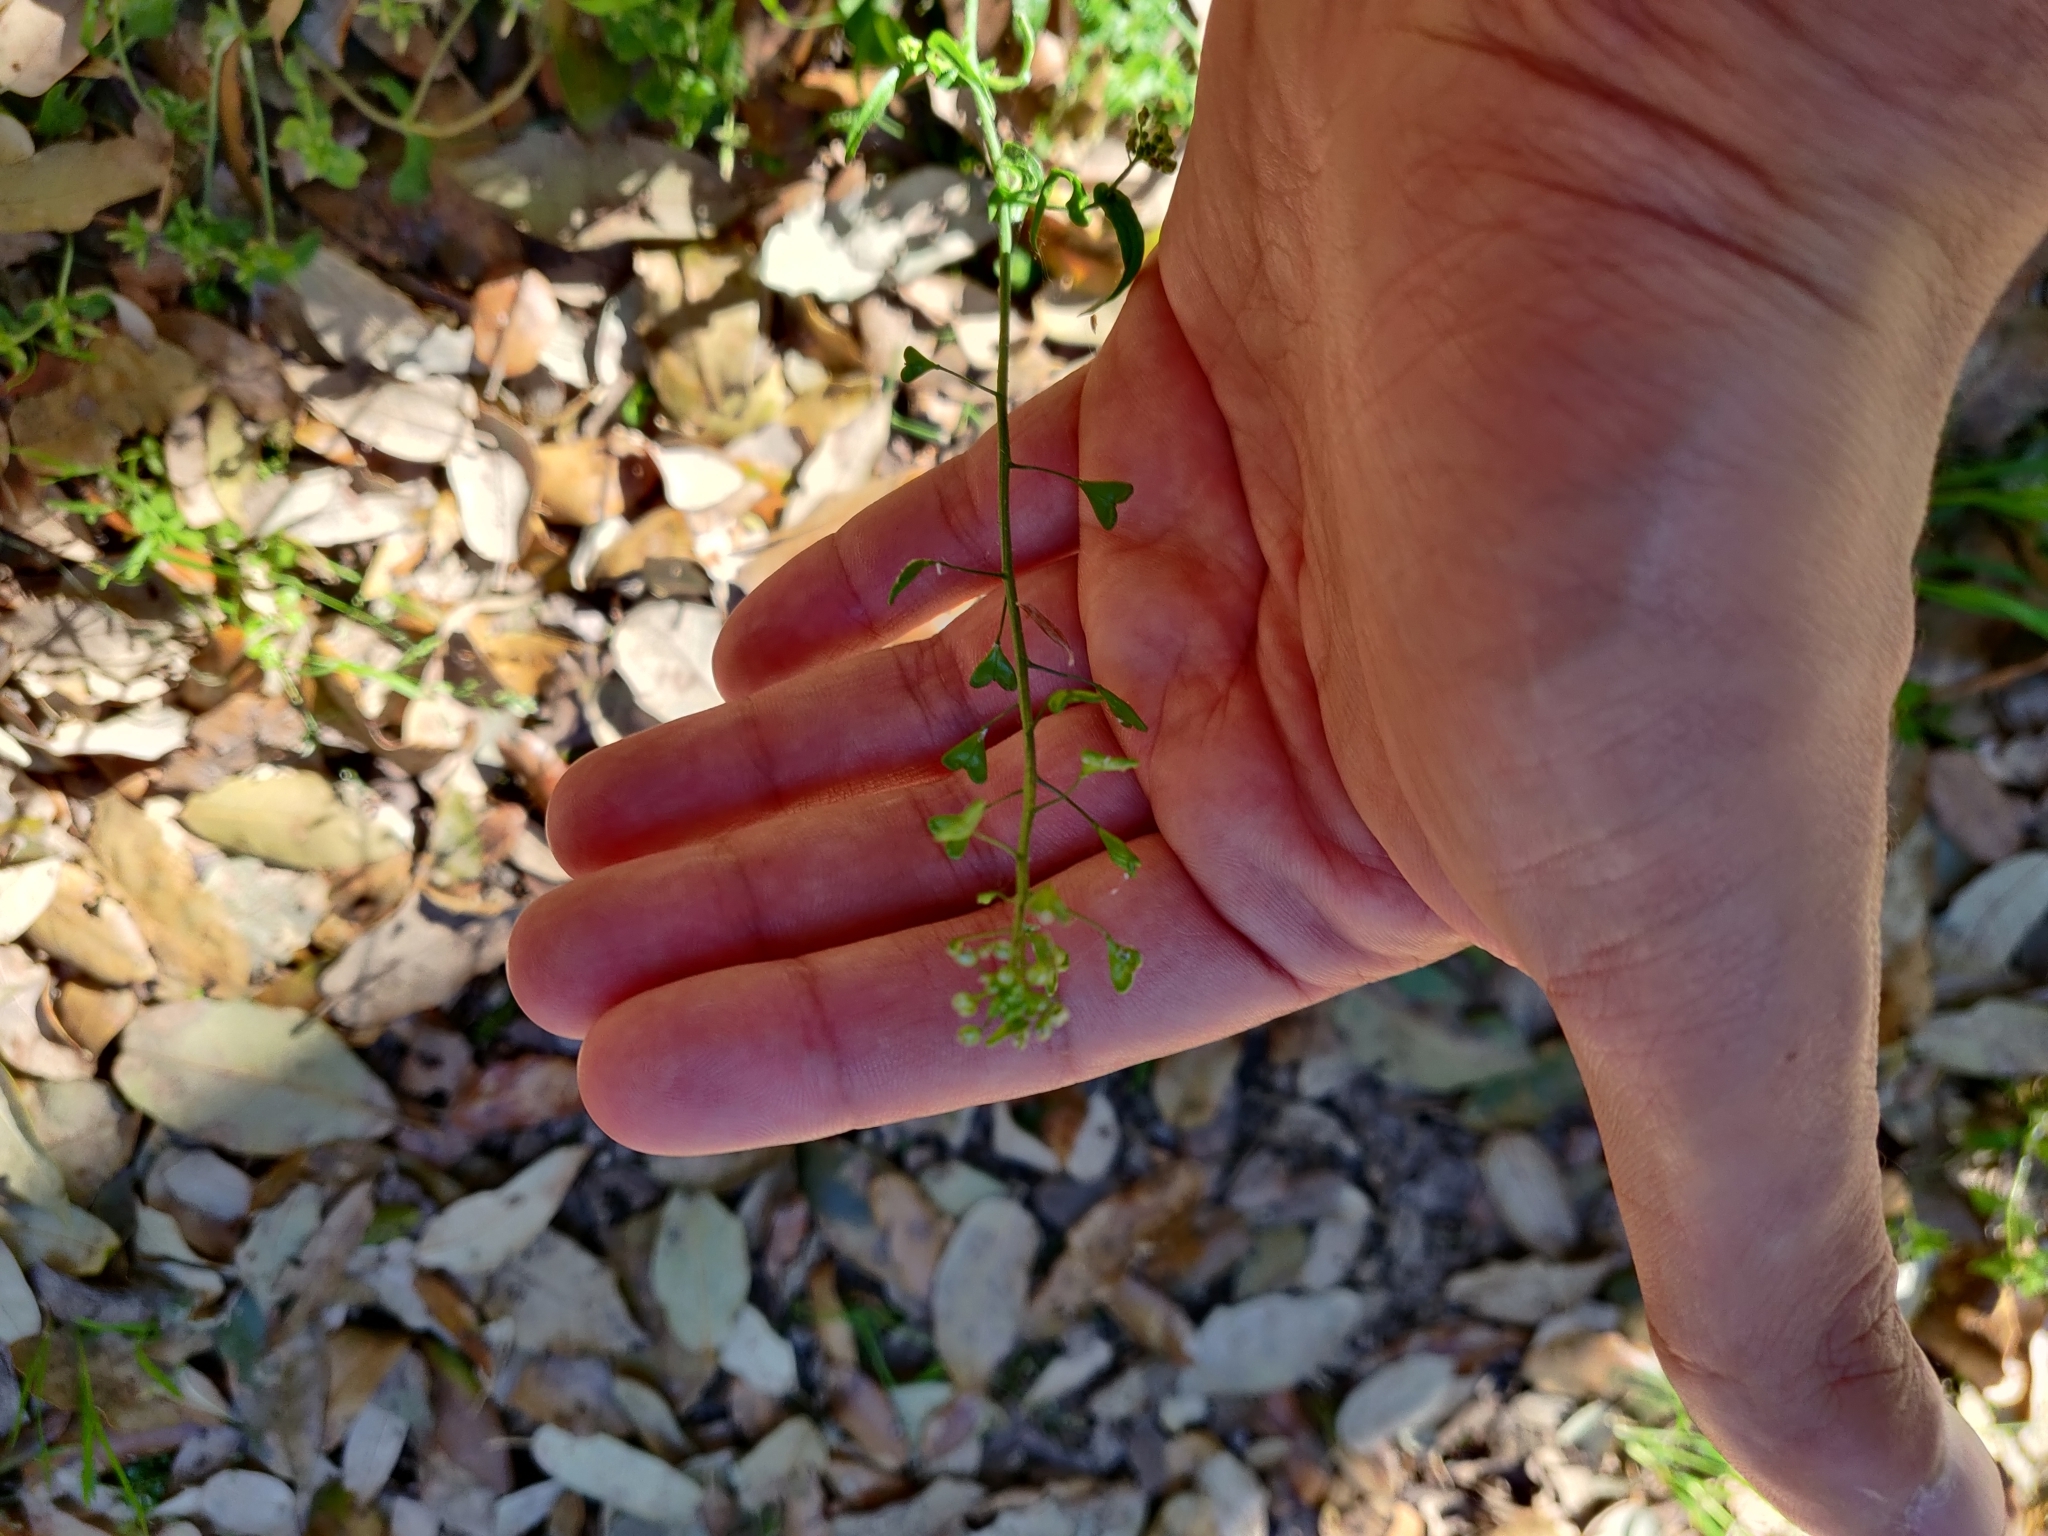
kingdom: Plantae
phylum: Tracheophyta
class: Magnoliopsida
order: Brassicales
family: Brassicaceae
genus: Capsella
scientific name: Capsella bursa-pastoris
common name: Shepherd's purse
